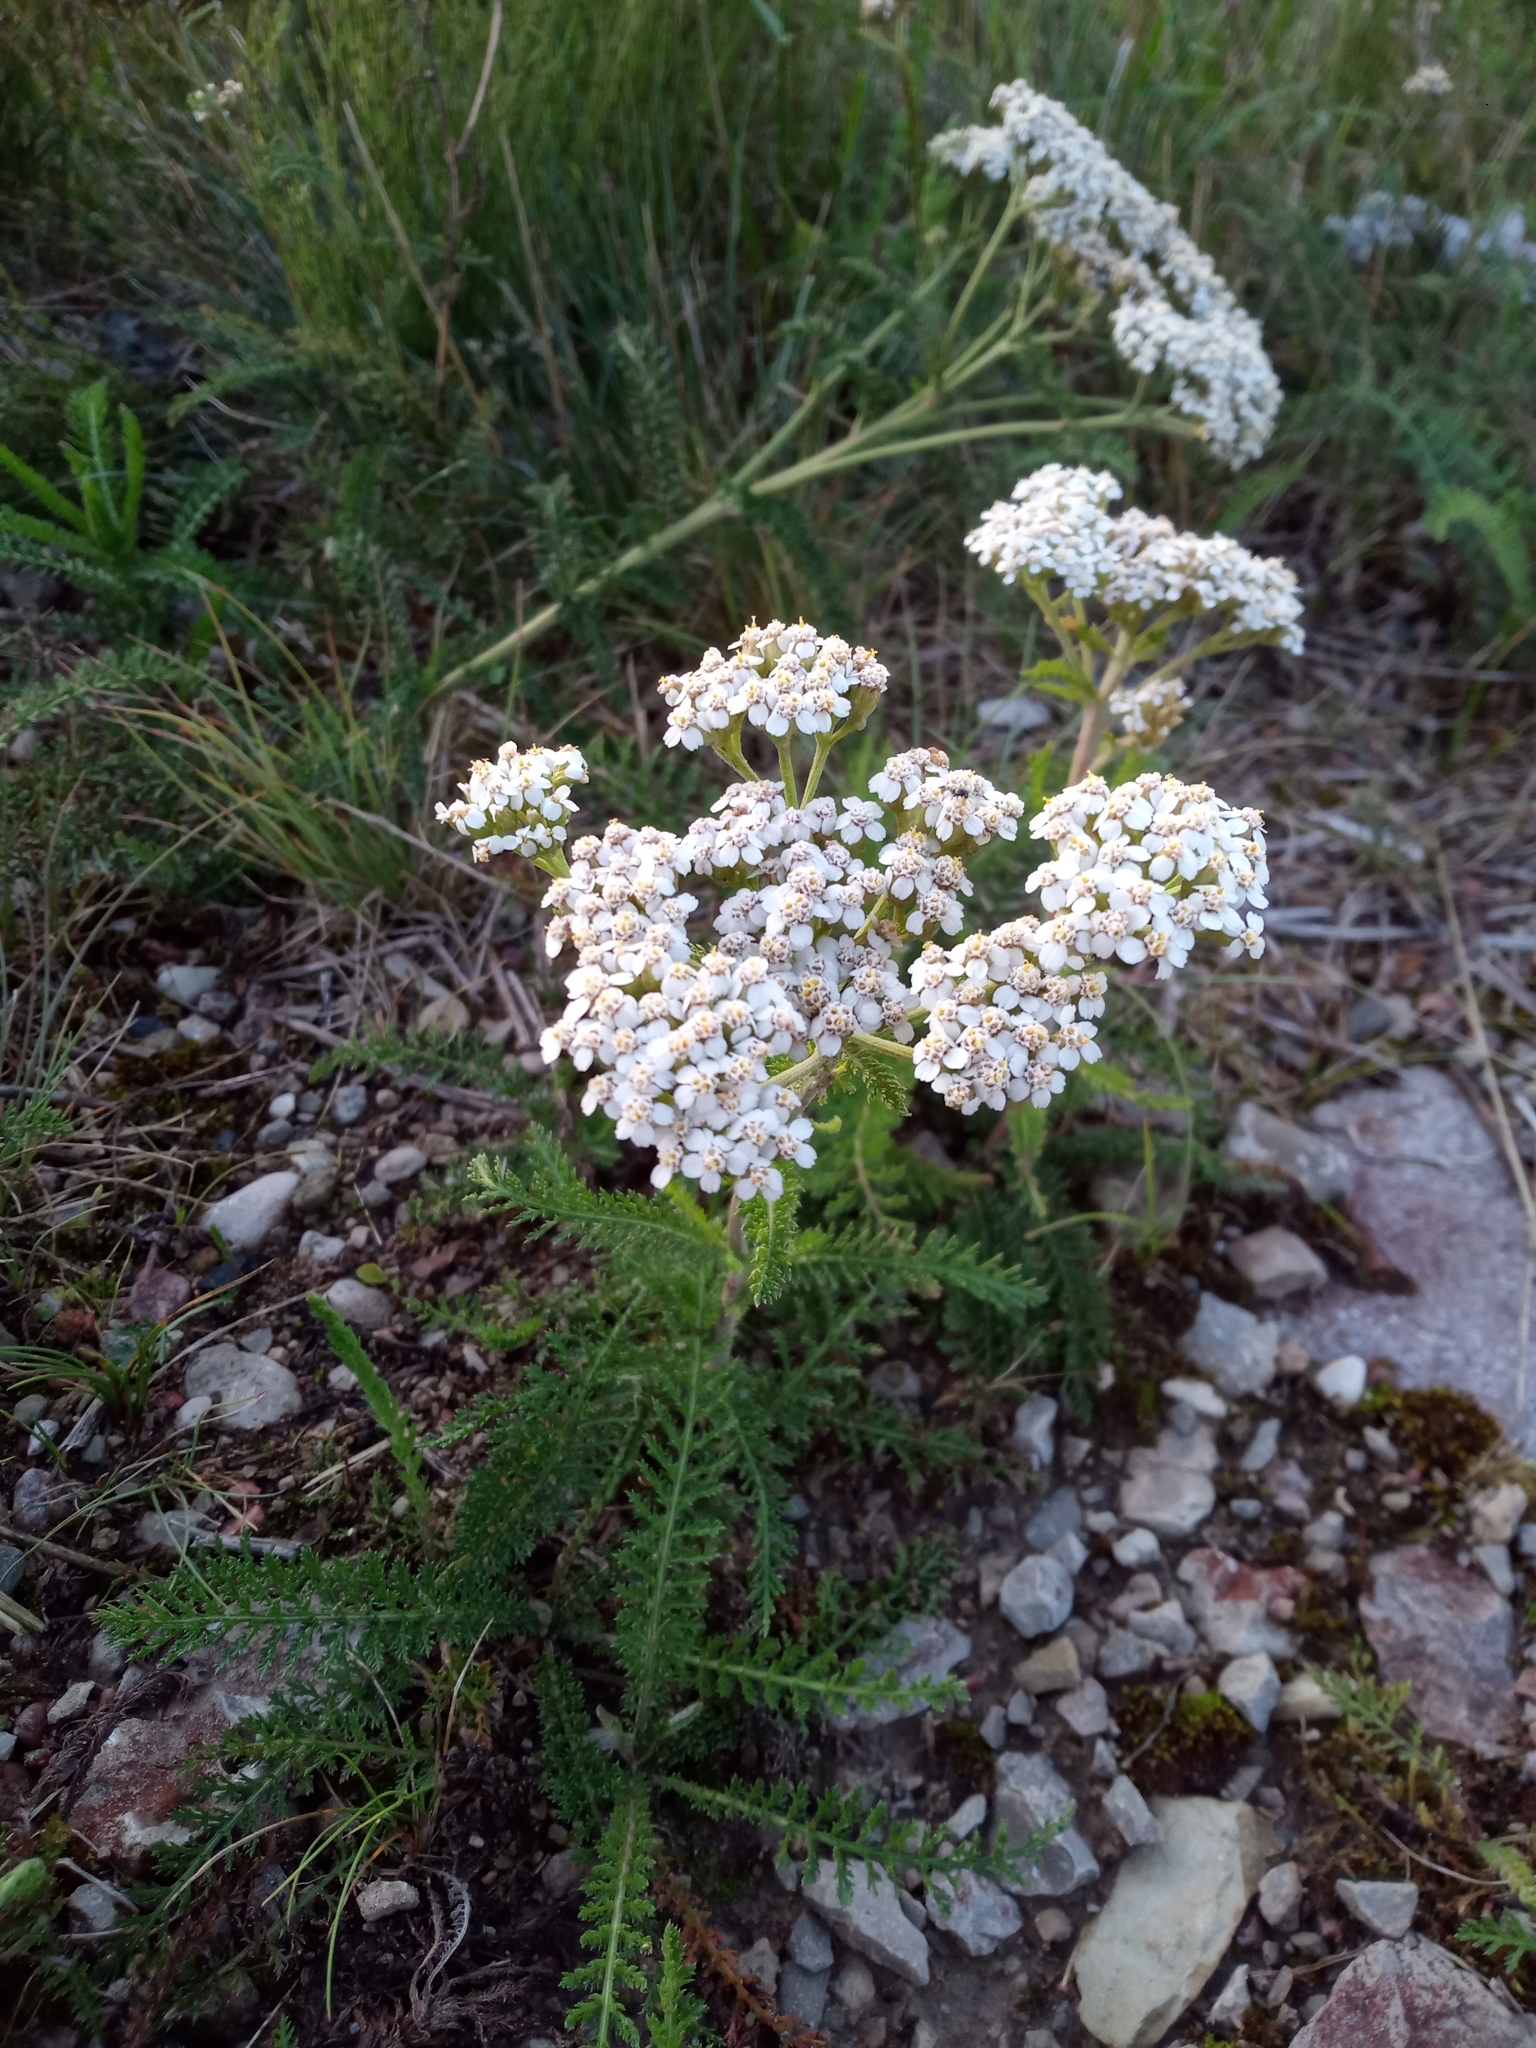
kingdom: Plantae
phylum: Tracheophyta
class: Magnoliopsida
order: Asterales
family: Asteraceae
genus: Achillea
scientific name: Achillea millefolium
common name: Yarrow
